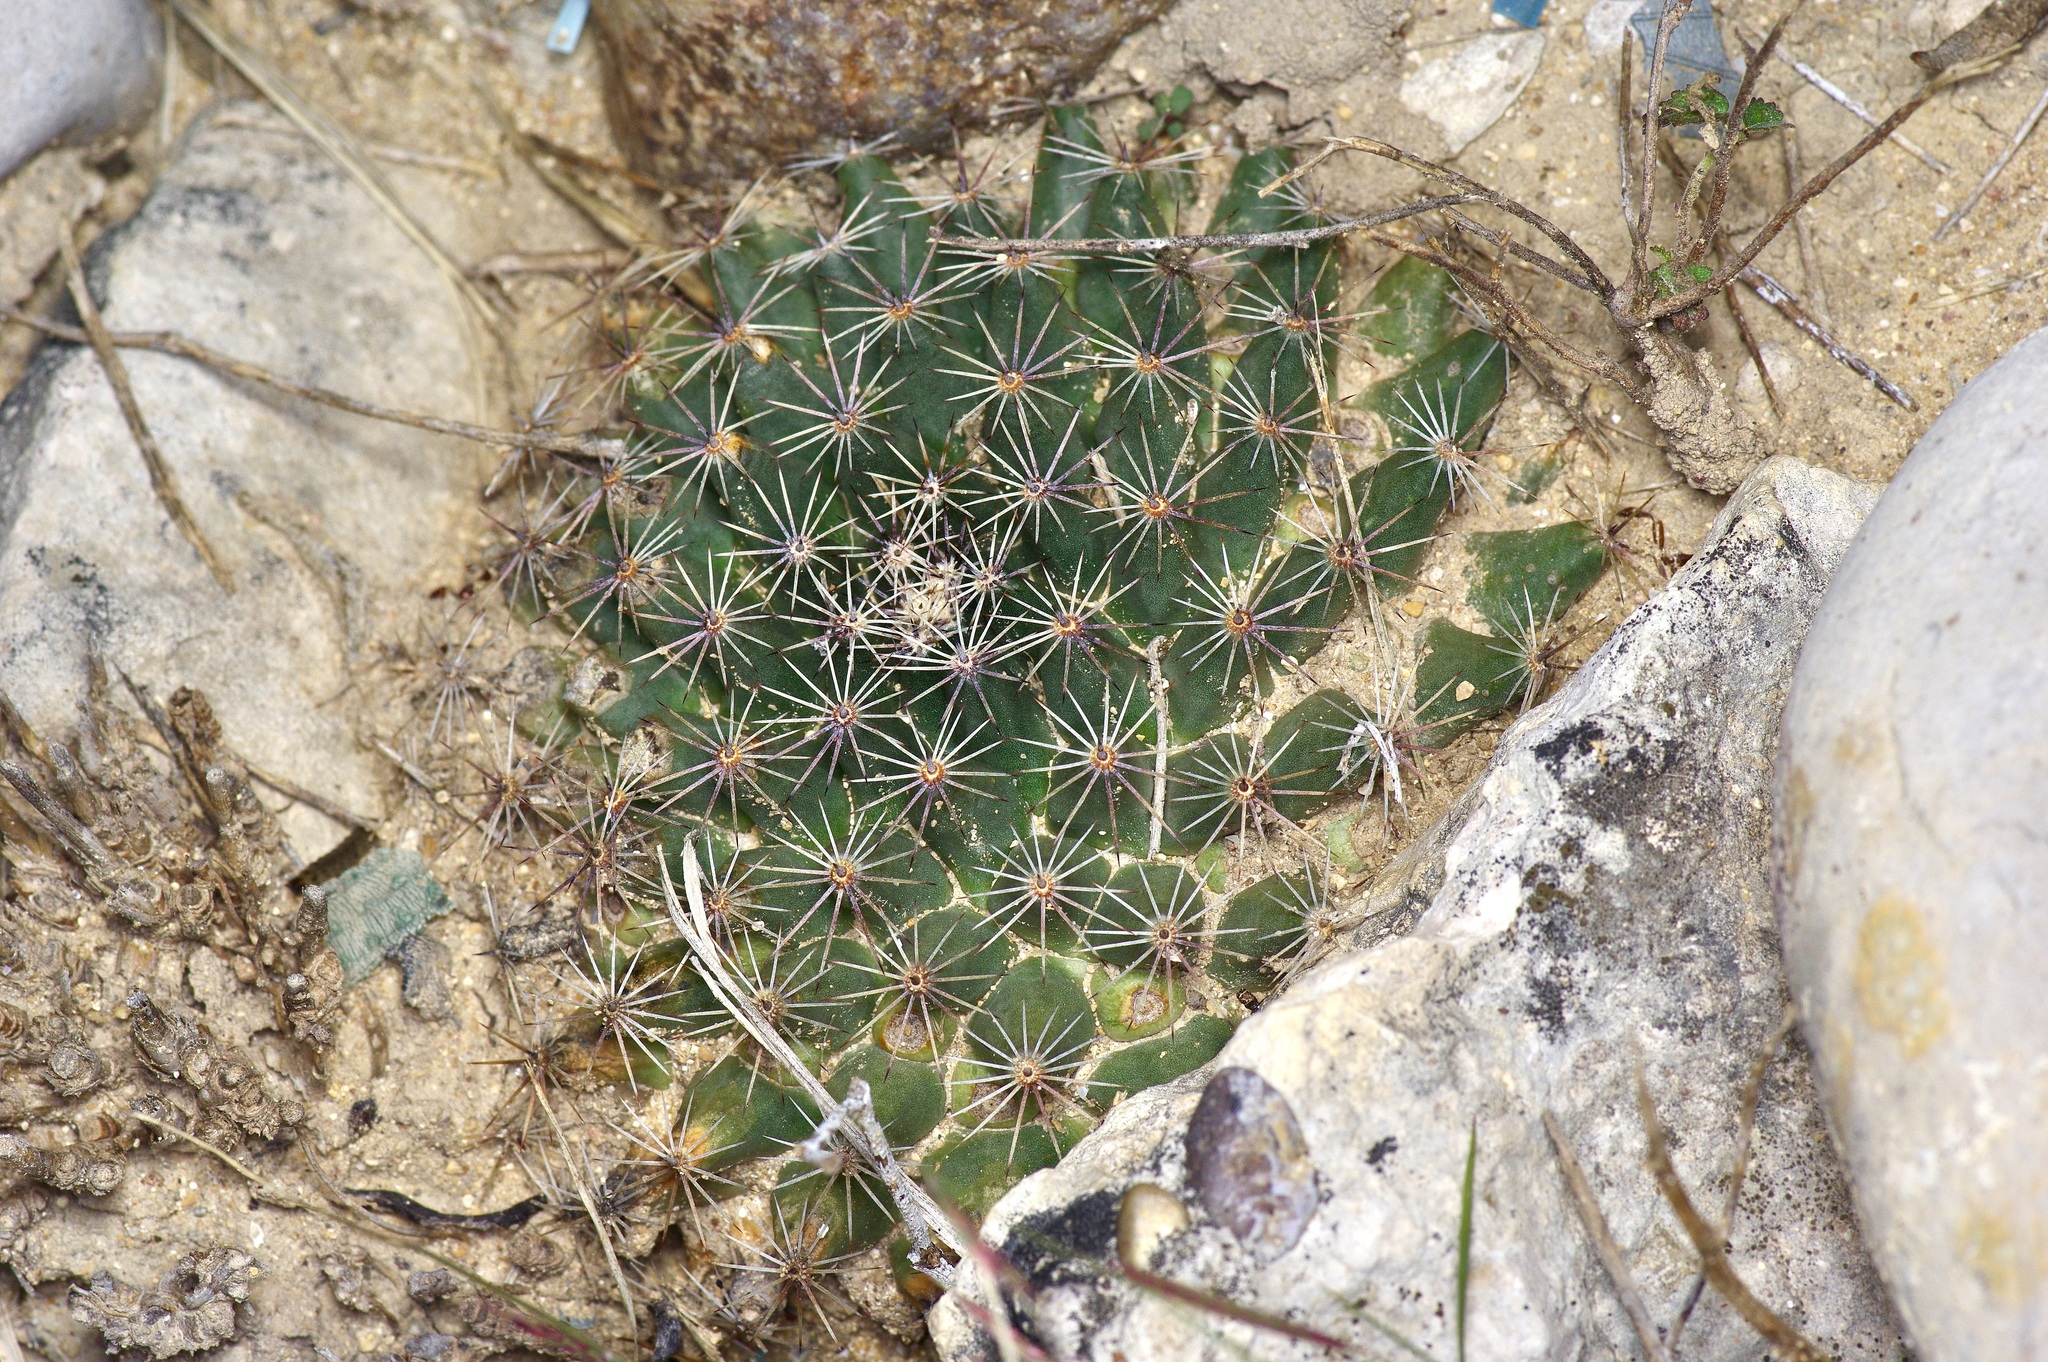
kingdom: Plantae
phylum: Tracheophyta
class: Magnoliopsida
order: Caryophyllales
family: Cactaceae
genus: Mammillaria
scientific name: Mammillaria heyderi
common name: Little nipple cactus
